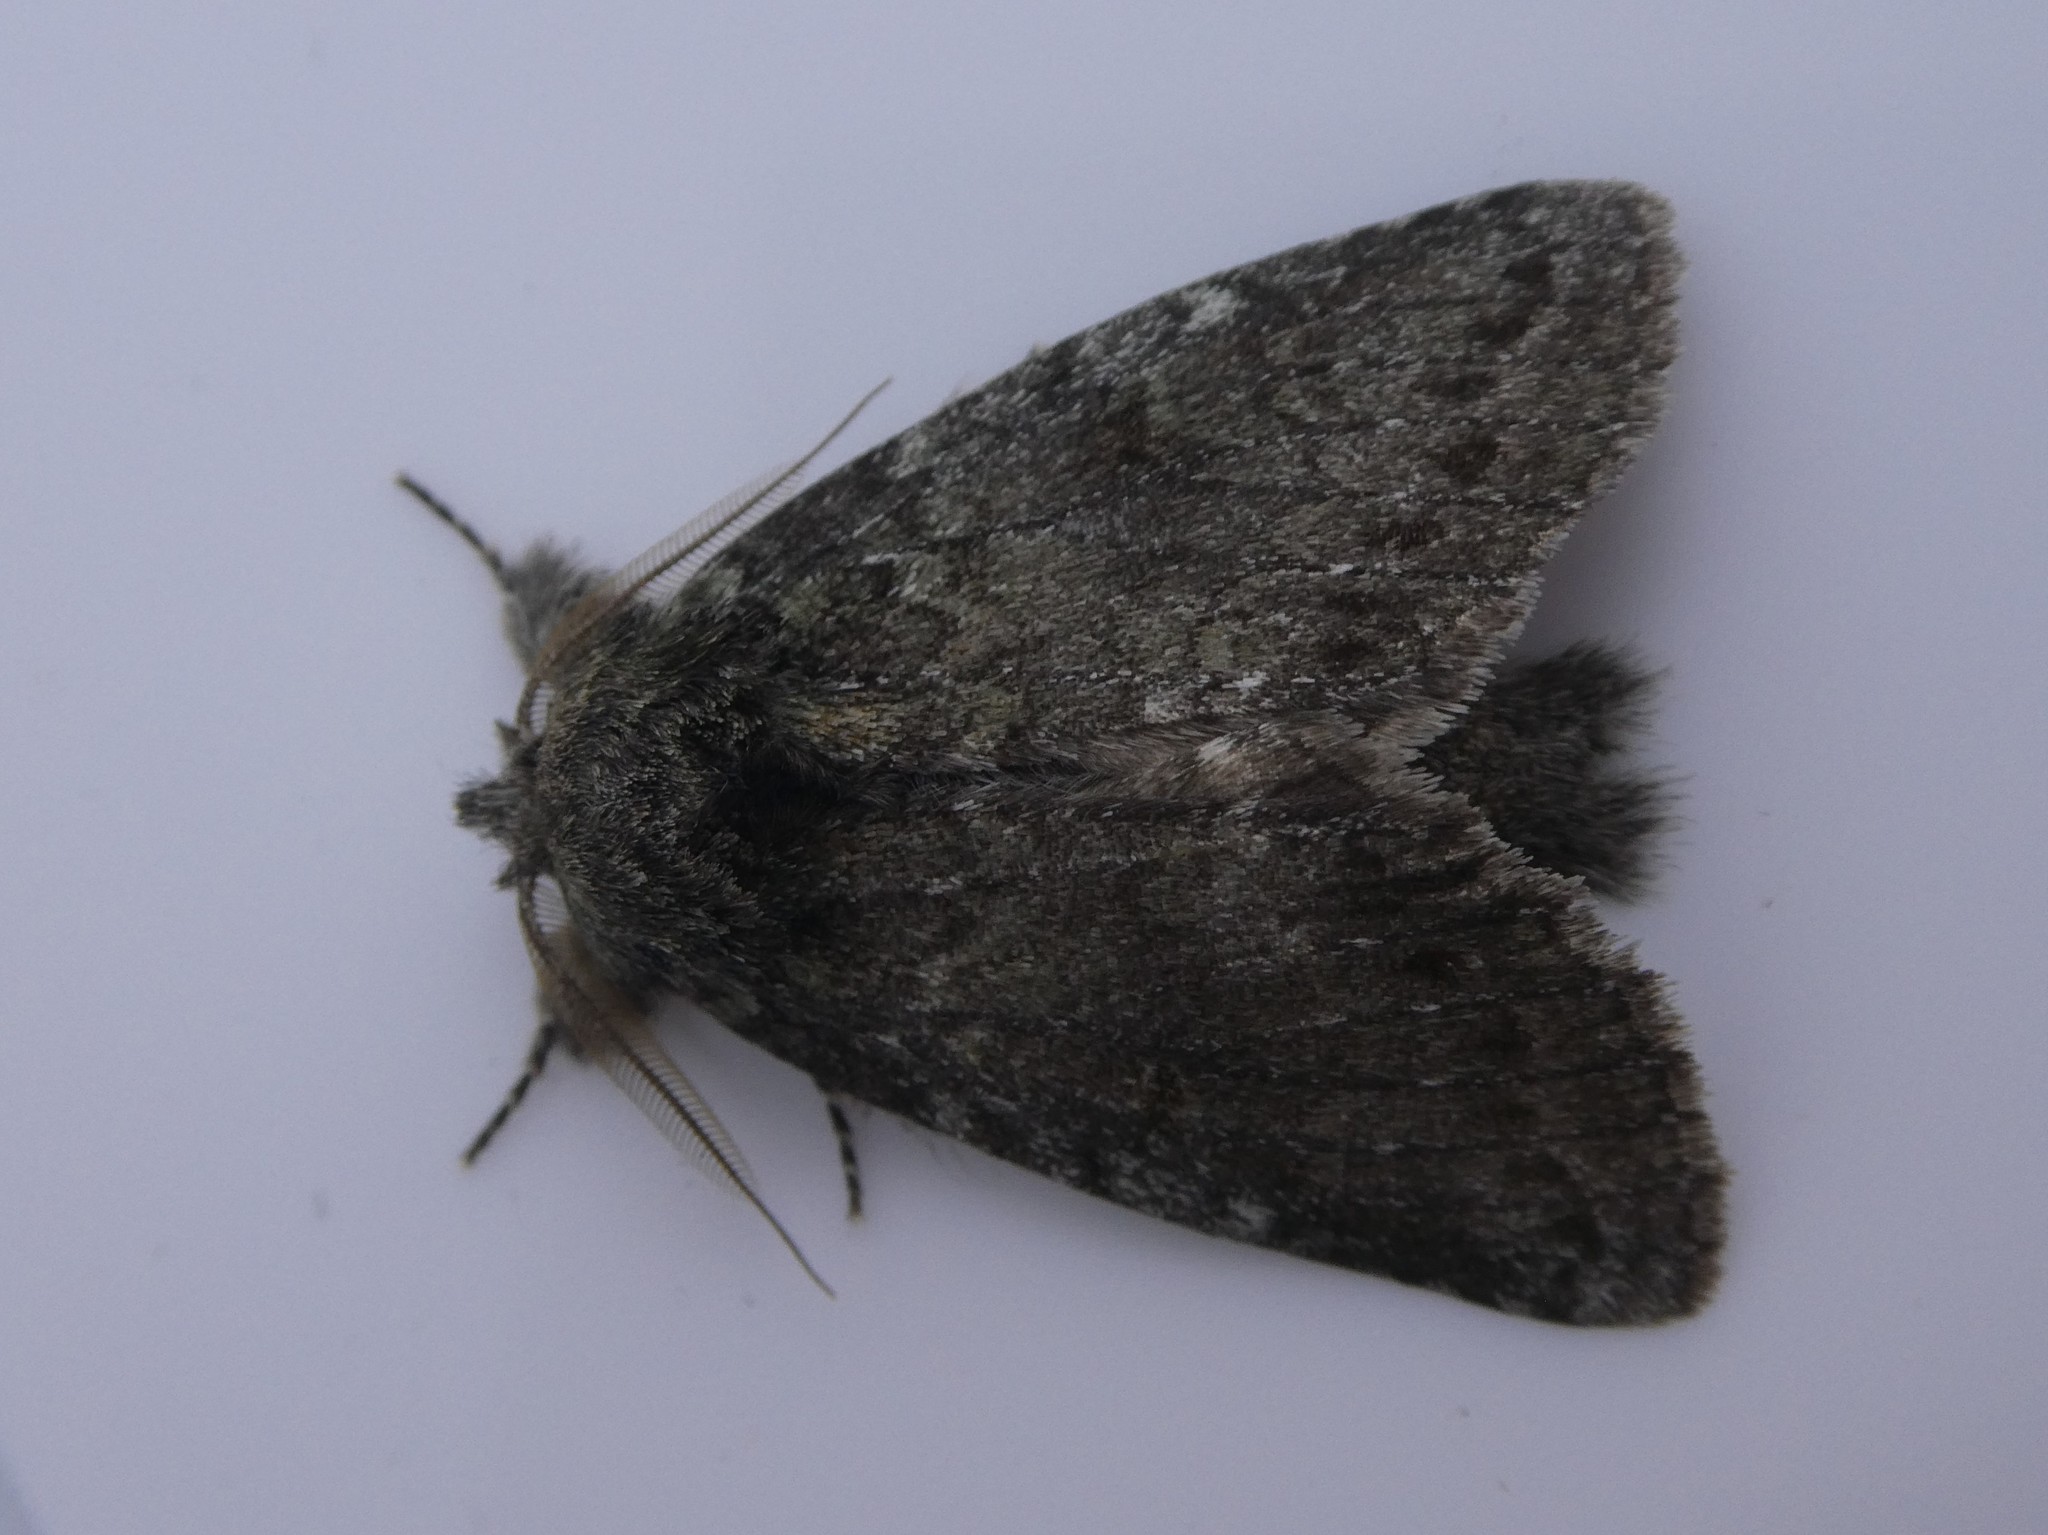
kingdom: Animalia
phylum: Arthropoda
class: Insecta
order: Lepidoptera
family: Notodontidae
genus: Disphragis
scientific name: Disphragis Cecrita guttivitta
